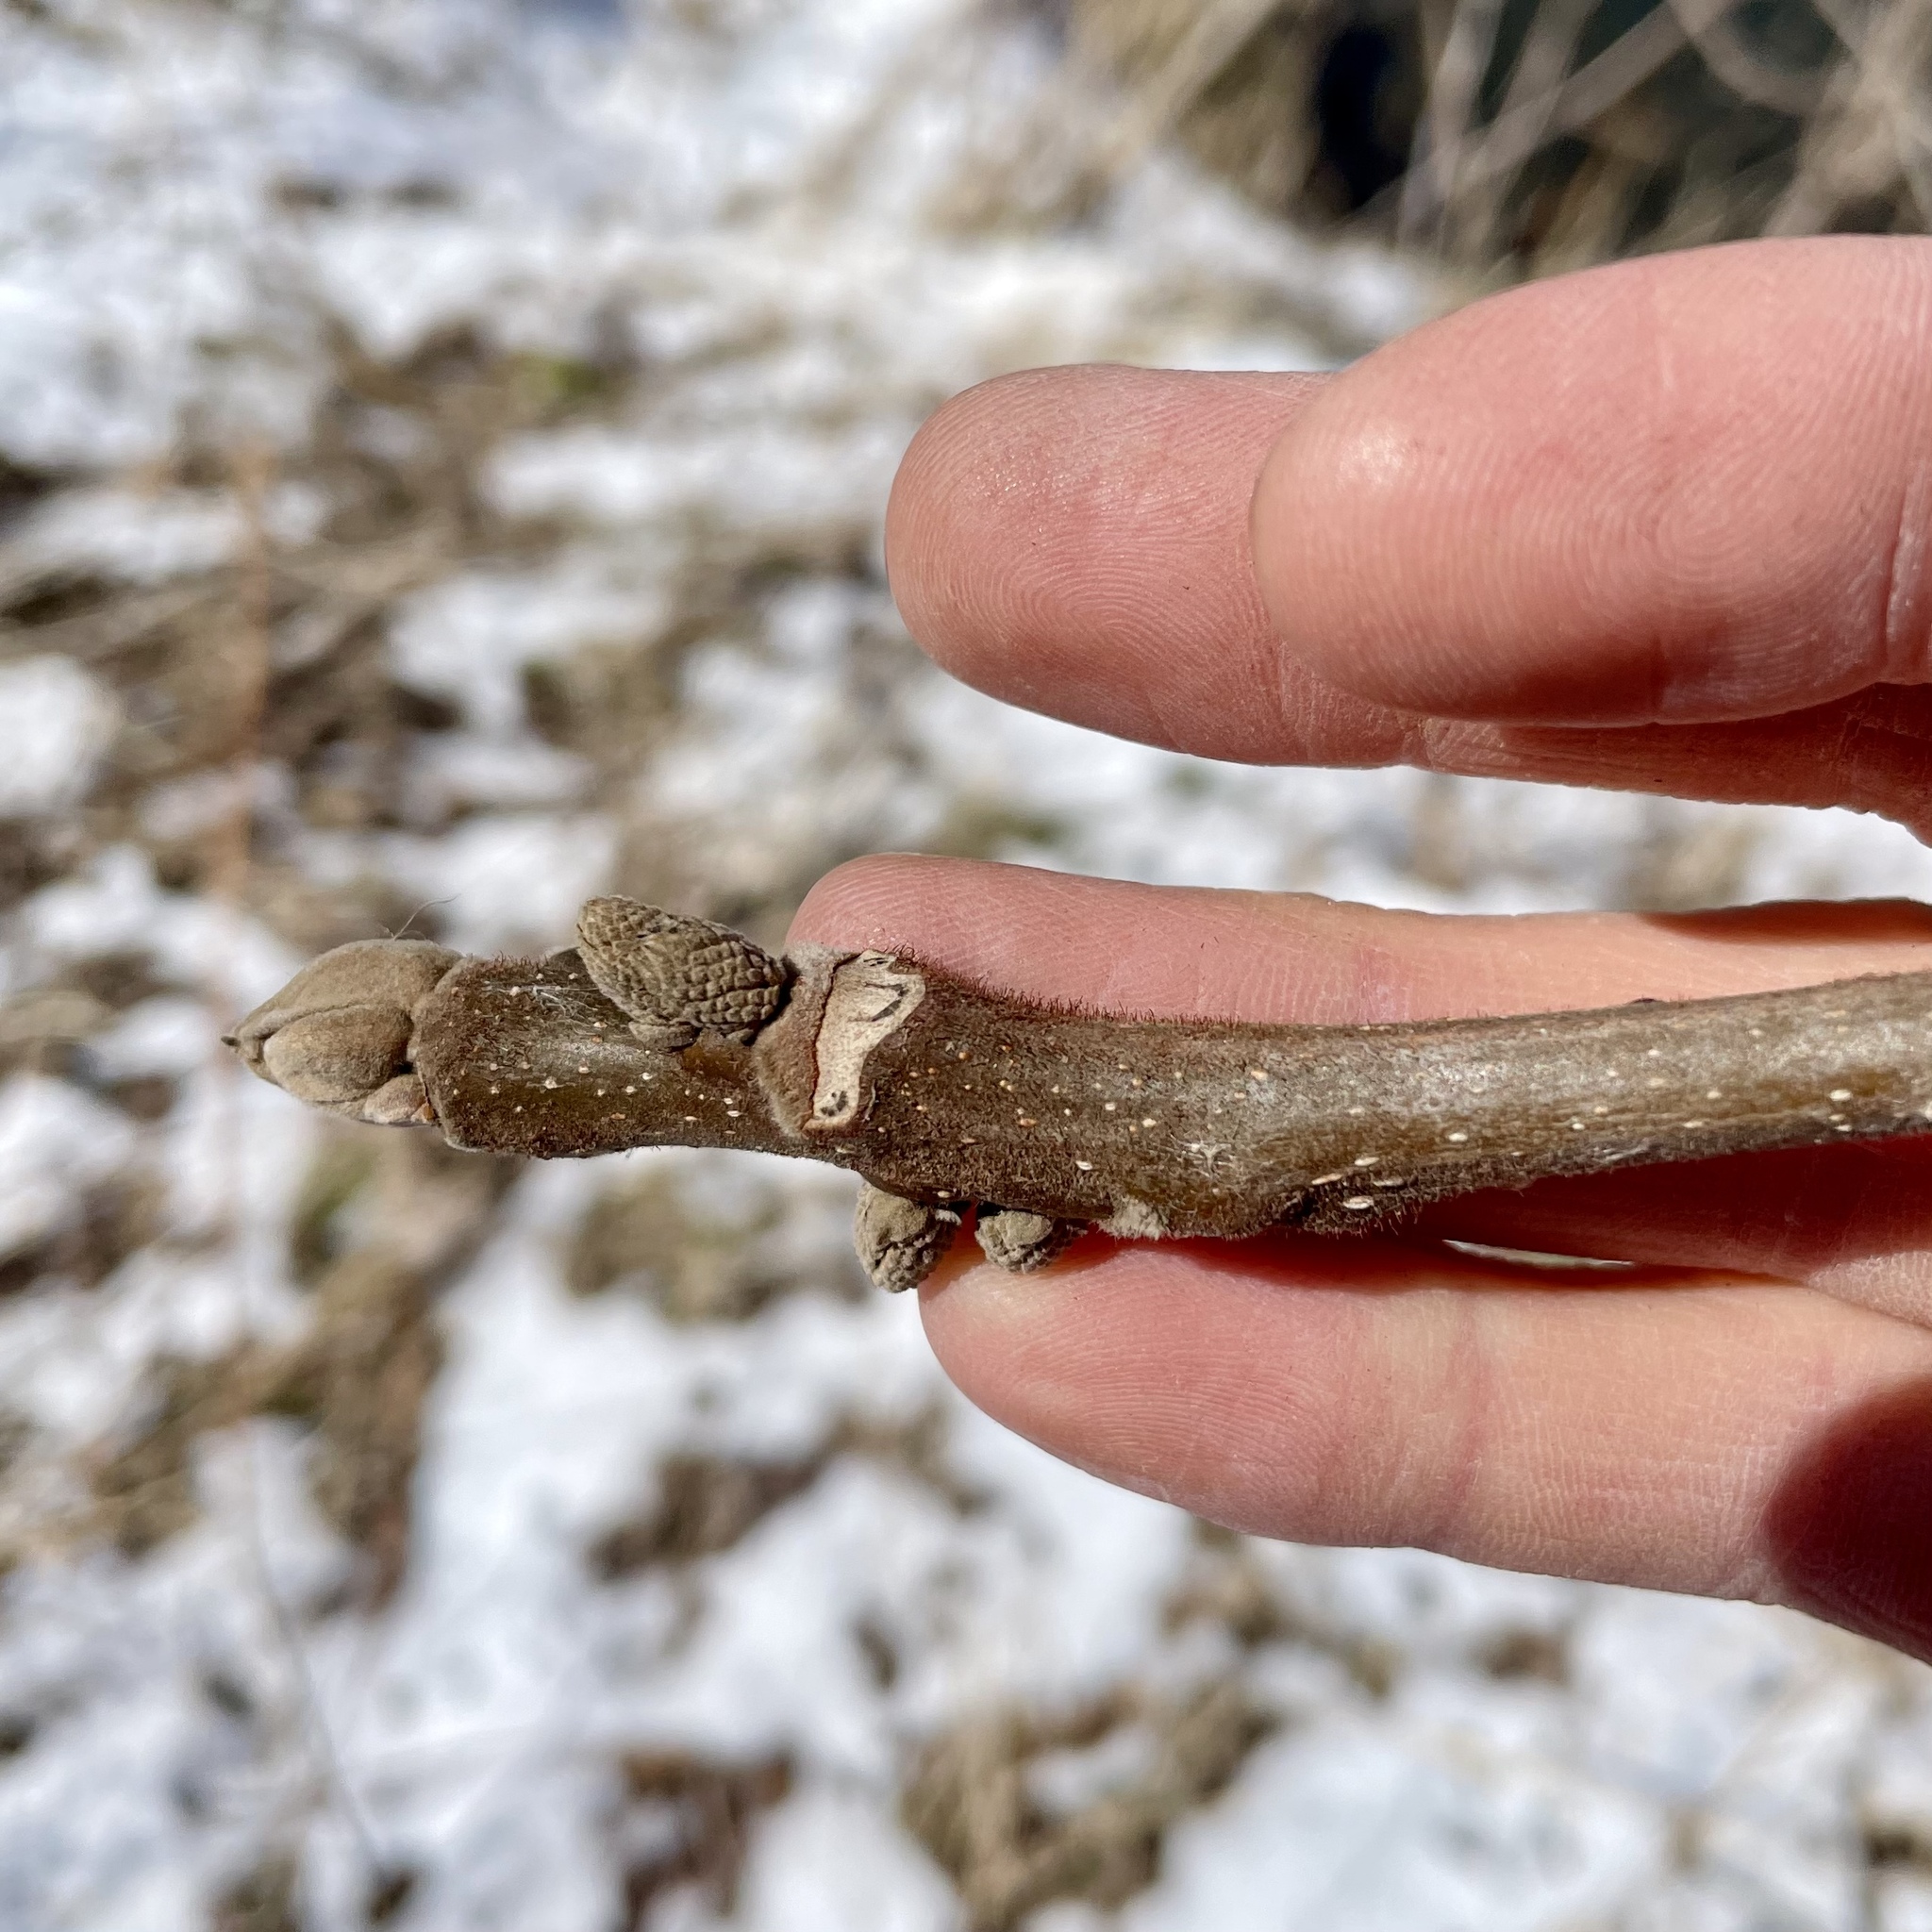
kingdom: Plantae
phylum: Tracheophyta
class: Magnoliopsida
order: Fagales
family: Juglandaceae
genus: Juglans
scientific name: Juglans cinerea
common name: Butternut
